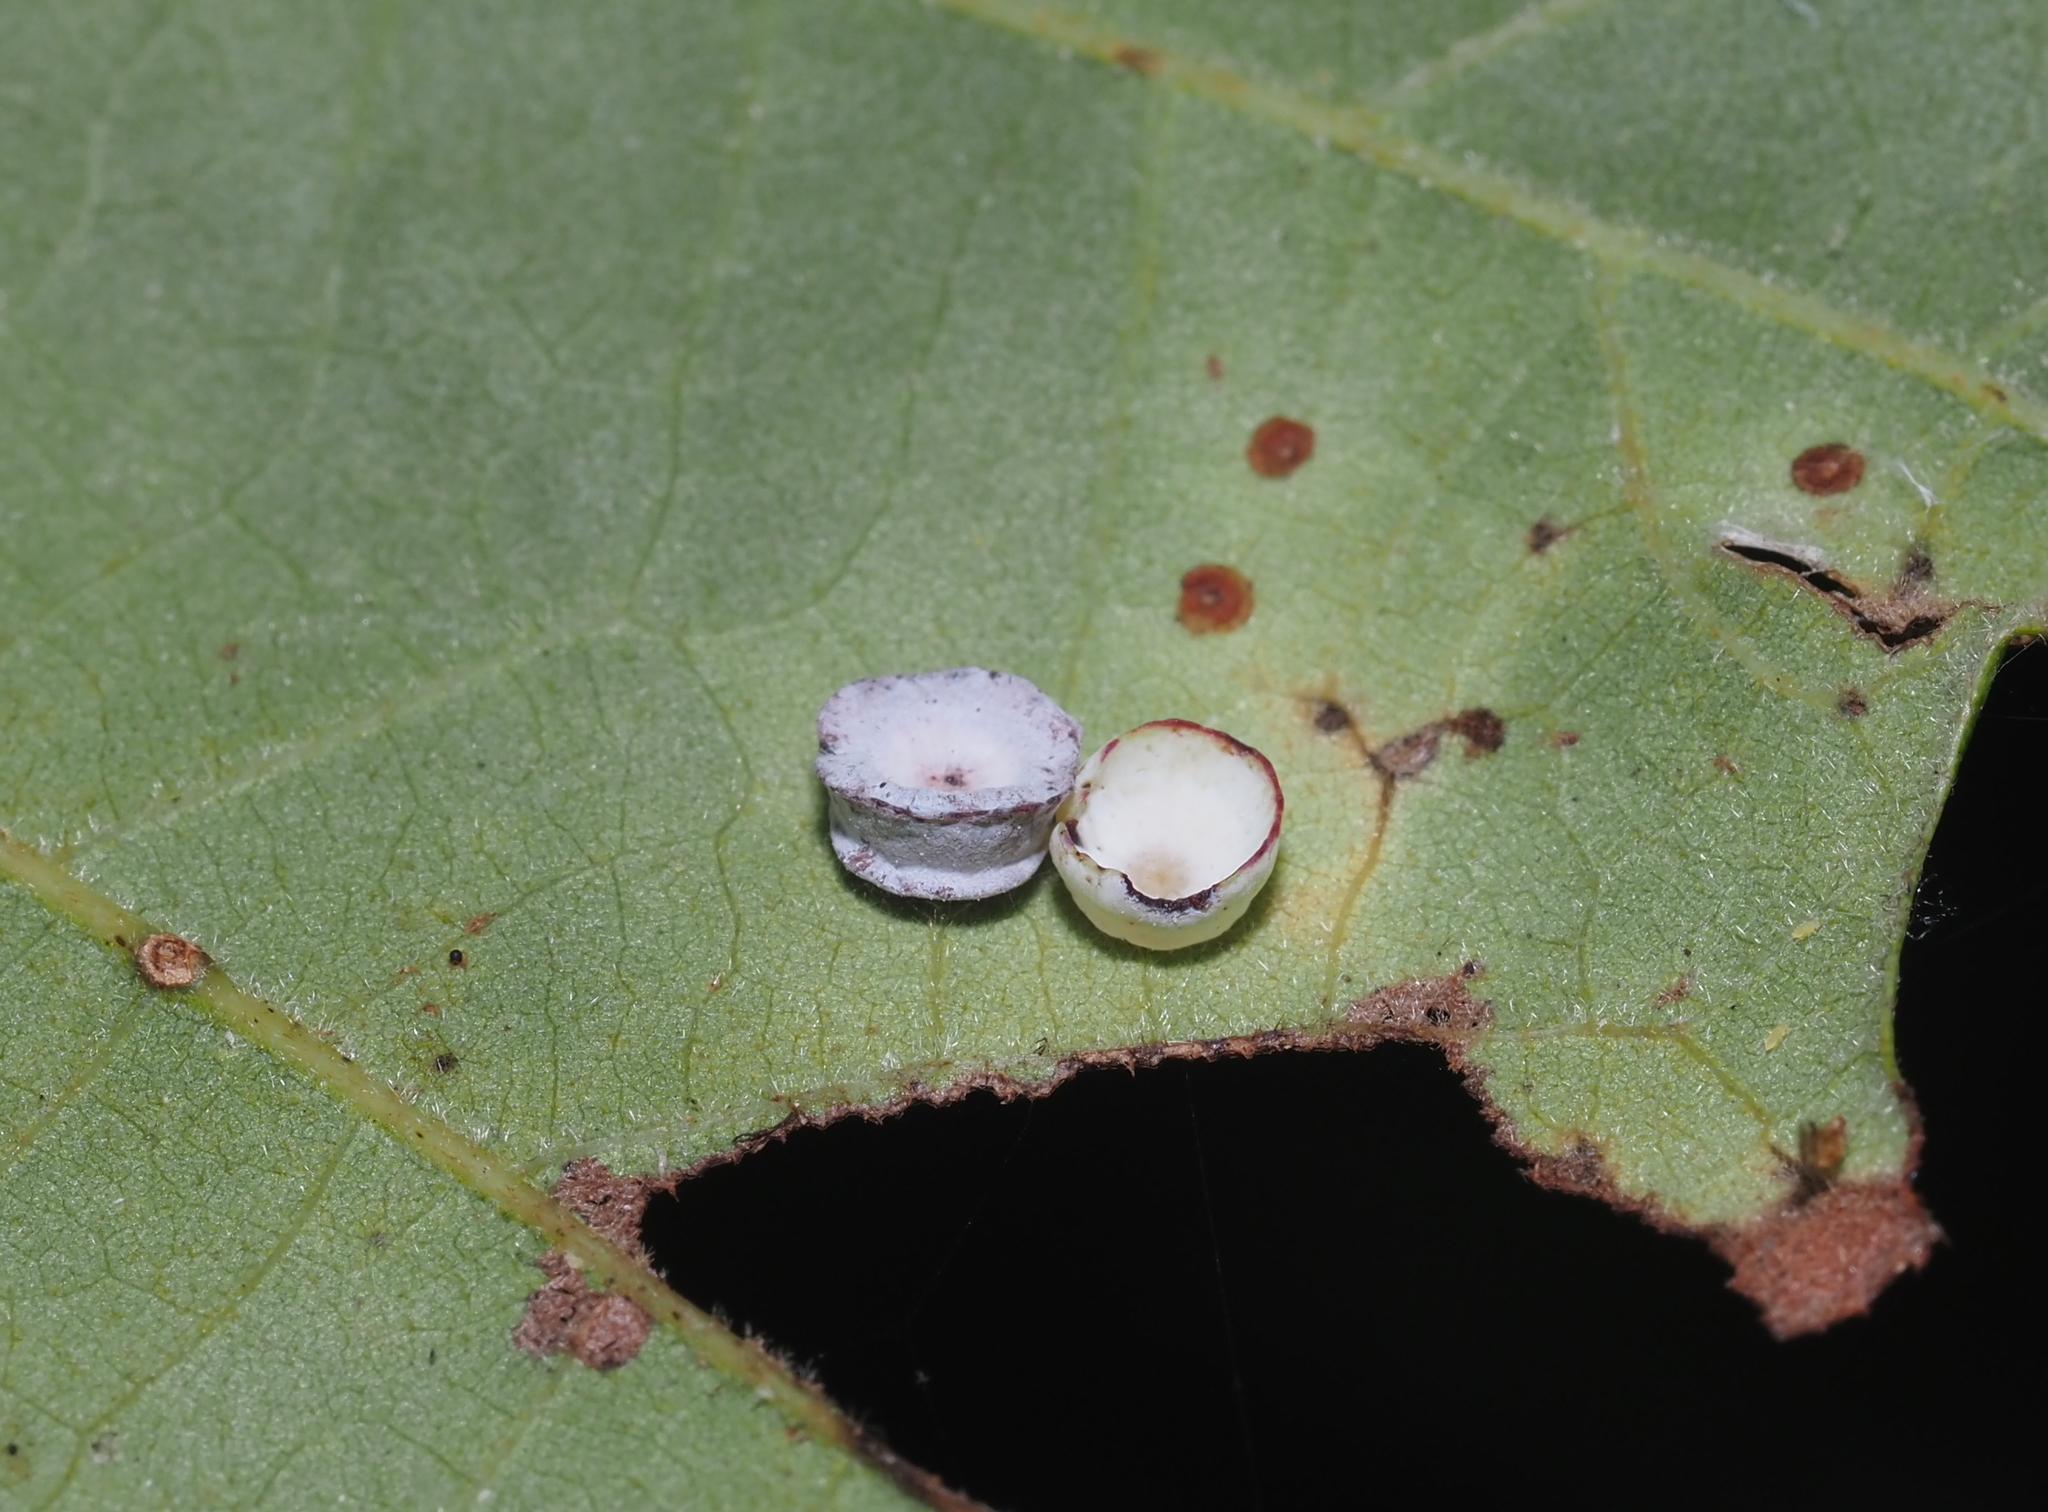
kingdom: Animalia
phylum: Arthropoda
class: Insecta
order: Hymenoptera
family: Cynipidae
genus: Phylloteras
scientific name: Phylloteras
